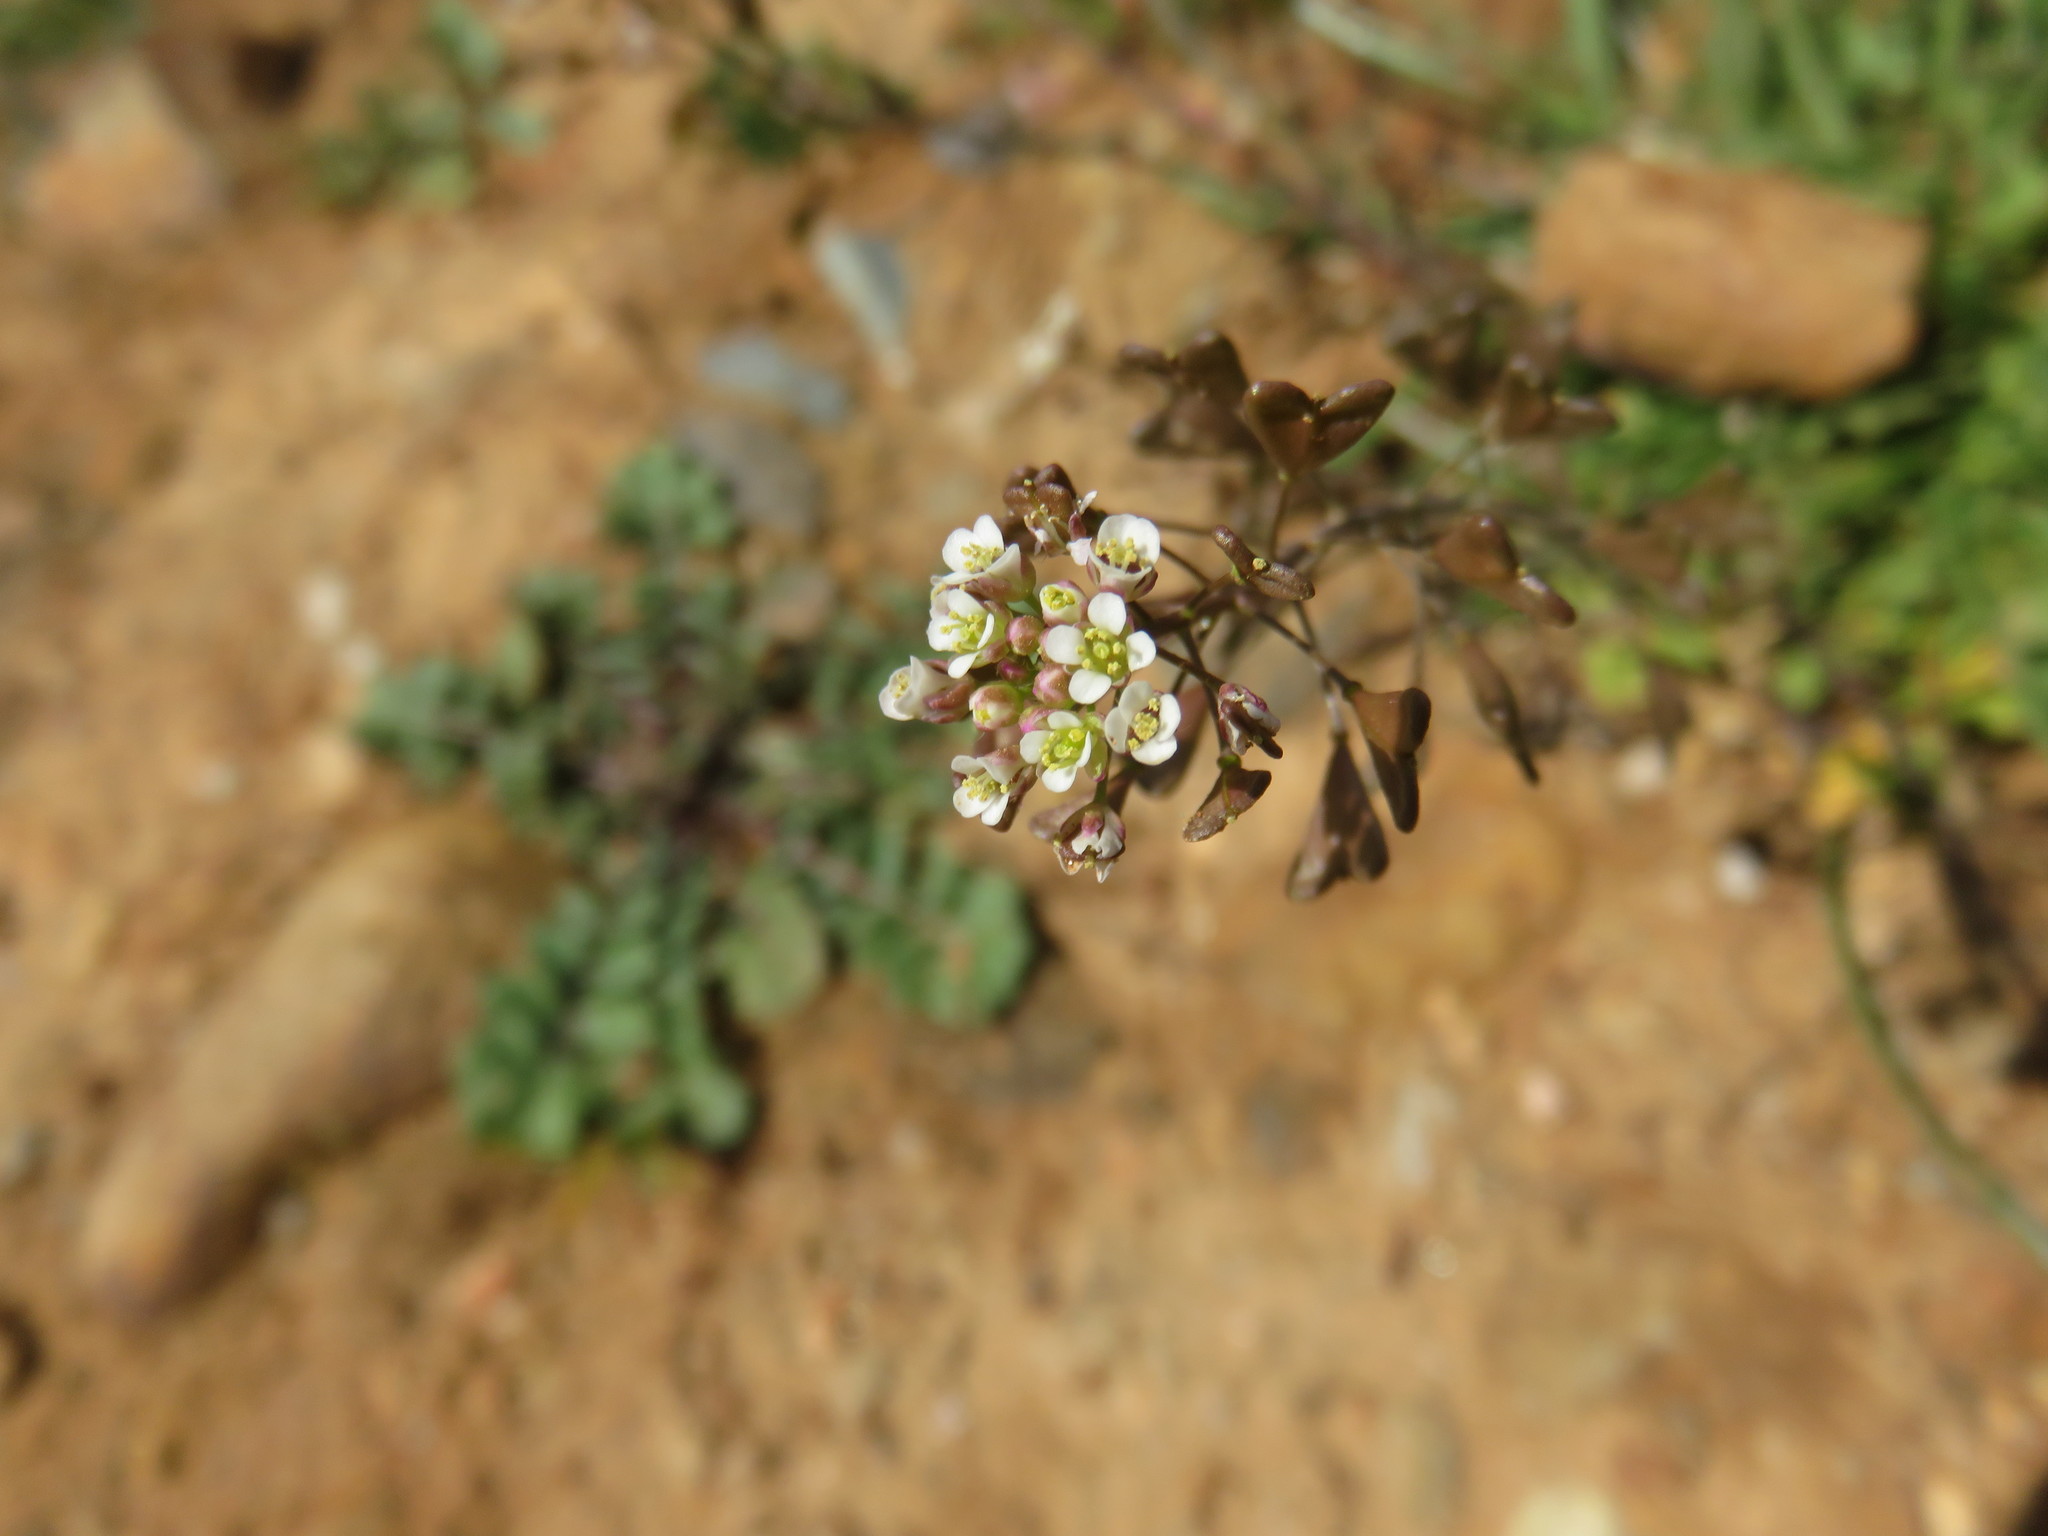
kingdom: Plantae
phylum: Tracheophyta
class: Magnoliopsida
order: Brassicales
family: Brassicaceae
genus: Capsella
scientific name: Capsella bursa-pastoris
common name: Shepherd's purse
